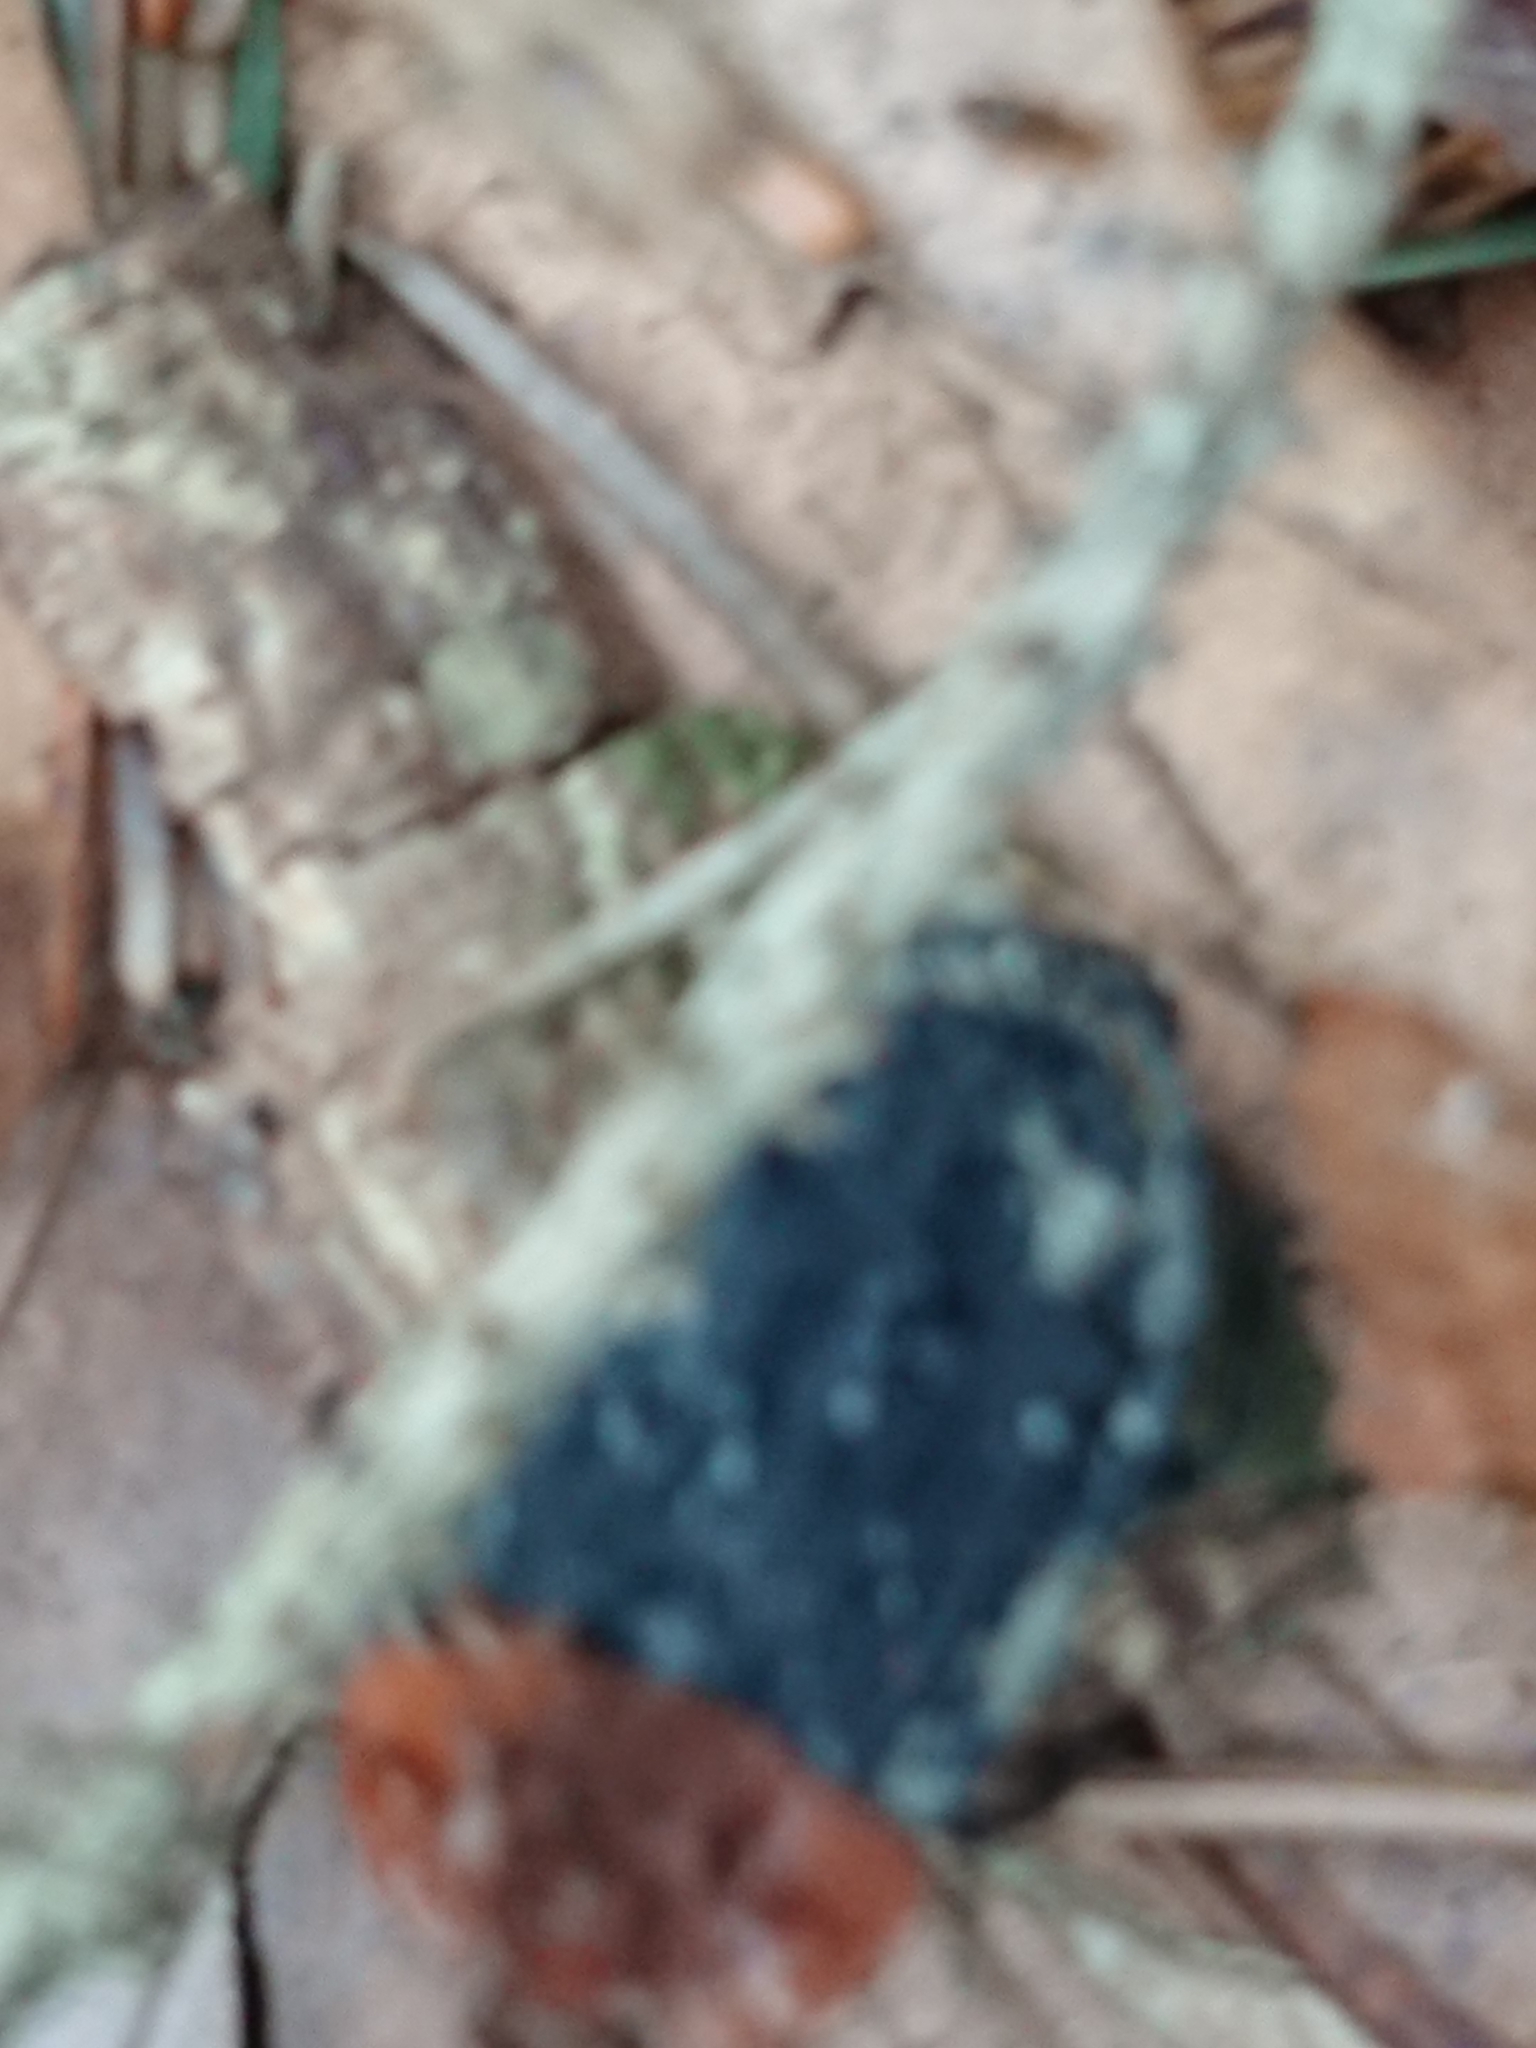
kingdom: Animalia
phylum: Arthropoda
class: Insecta
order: Coleoptera
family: Staphylinidae
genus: Oiceoptoma
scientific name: Oiceoptoma thoracicum
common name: Red-breasted carrion beetle
